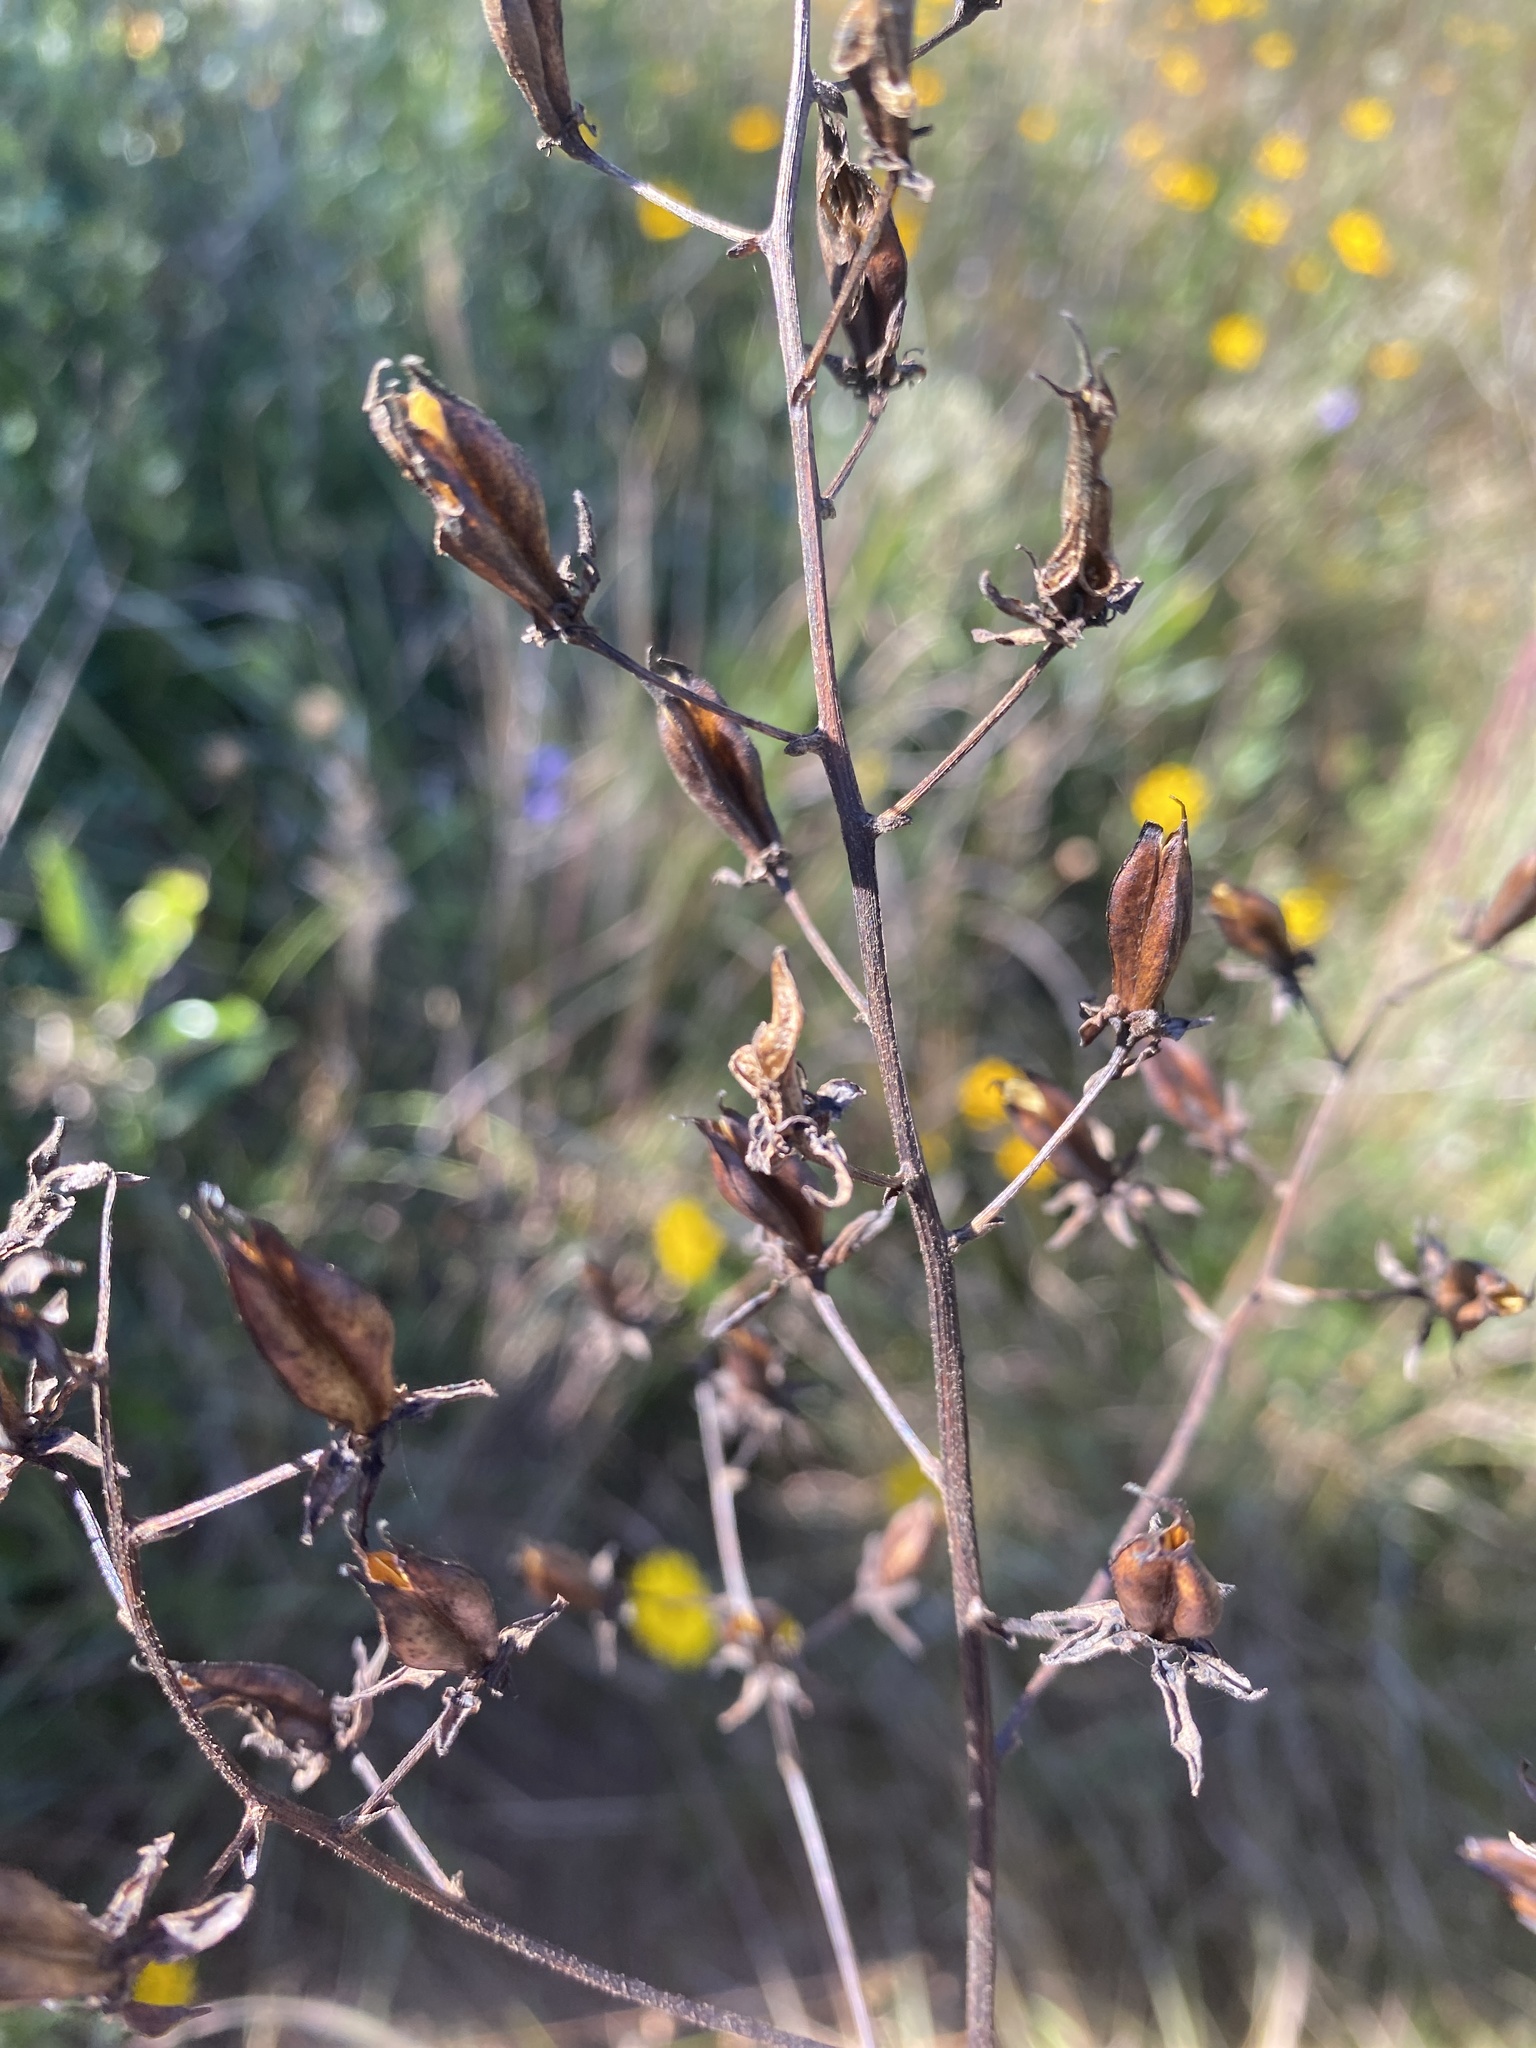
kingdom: Plantae
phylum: Tracheophyta
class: Liliopsida
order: Liliales
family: Melanthiaceae
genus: Zigadenus
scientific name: Zigadenus glaberrimus
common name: Sandbog death camas
